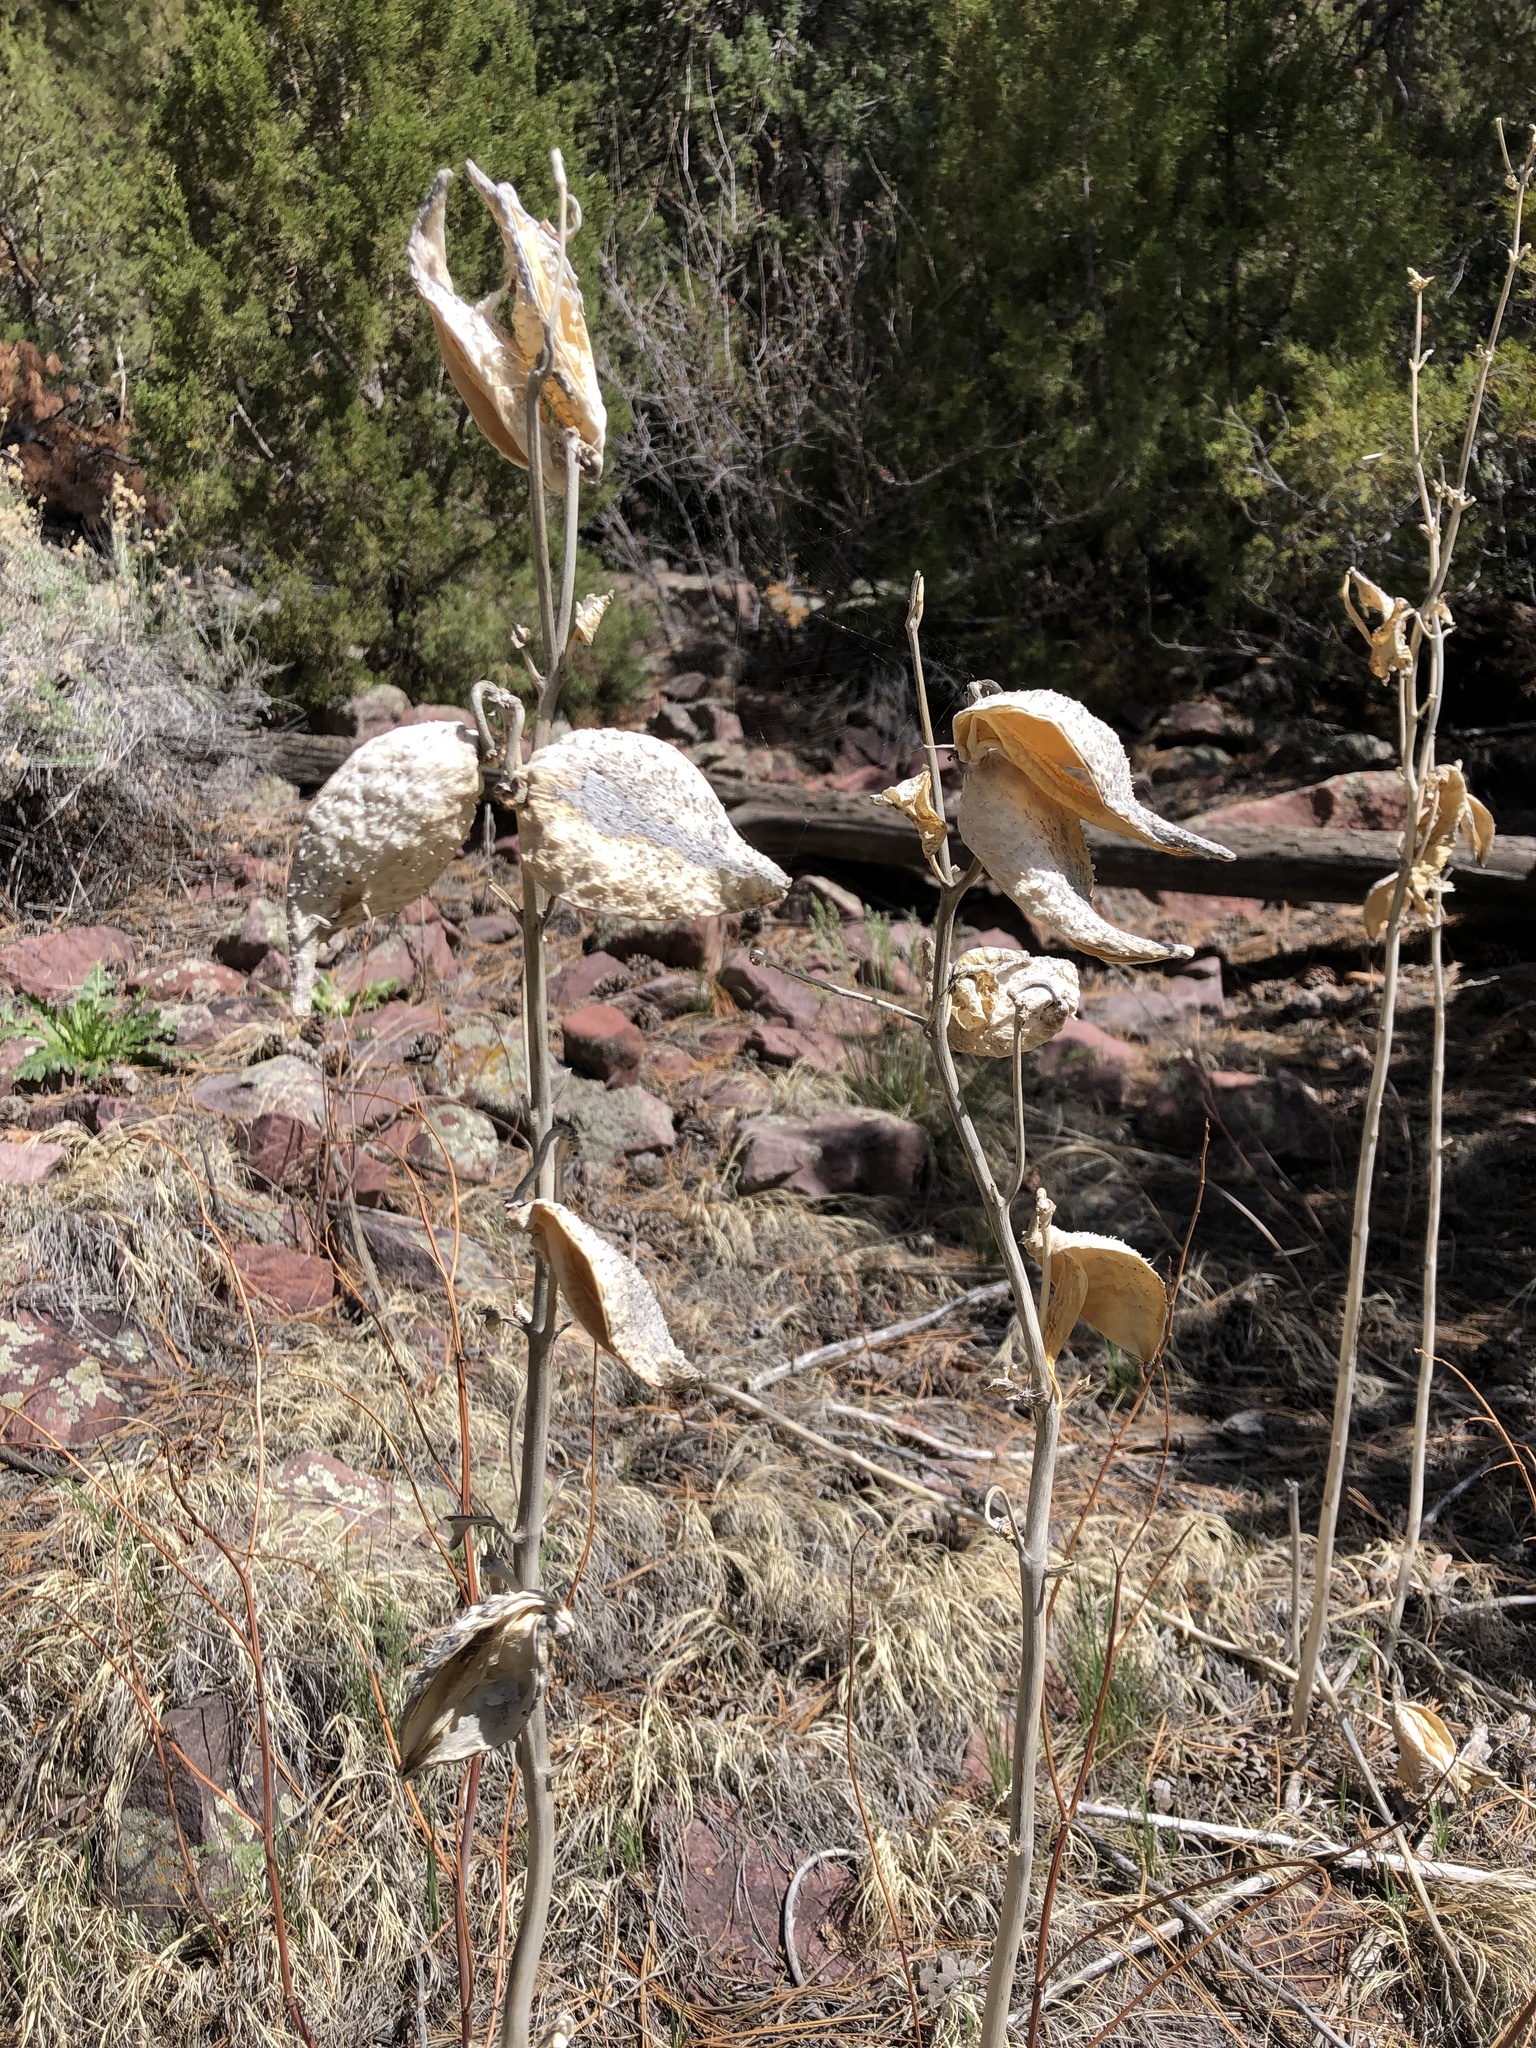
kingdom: Plantae
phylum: Tracheophyta
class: Magnoliopsida
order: Gentianales
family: Apocynaceae
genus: Asclepias
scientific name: Asclepias speciosa
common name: Showy milkweed
